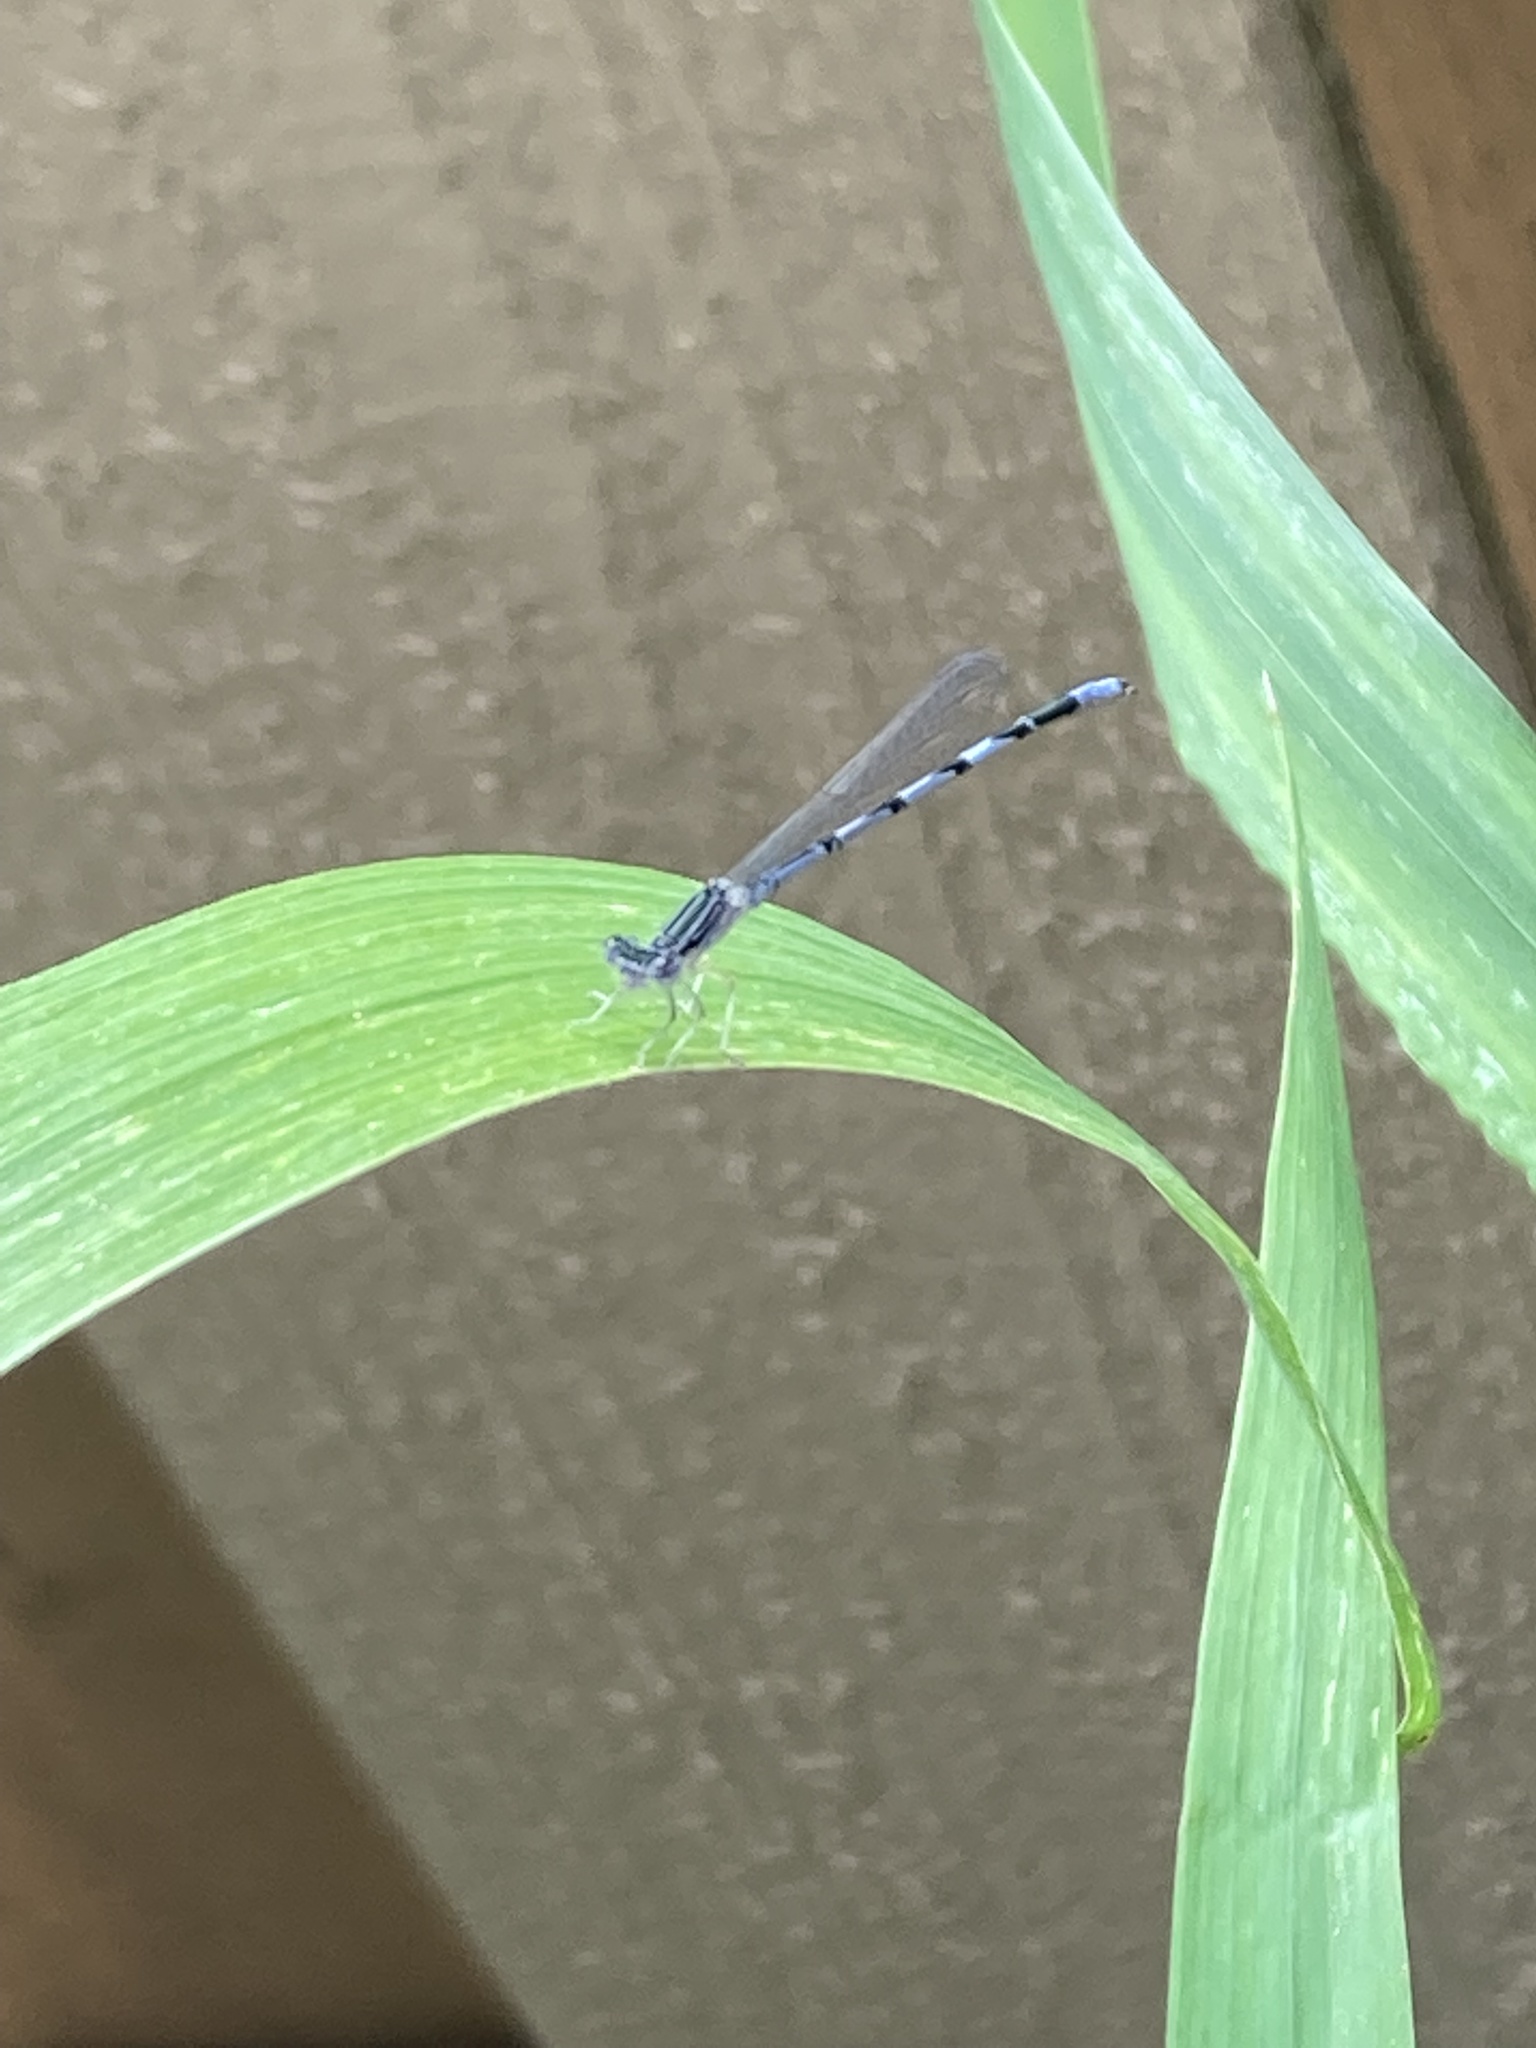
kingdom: Animalia
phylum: Arthropoda
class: Insecta
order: Odonata
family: Coenagrionidae
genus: Enallagma
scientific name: Enallagma basidens
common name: Double-striped bluet
